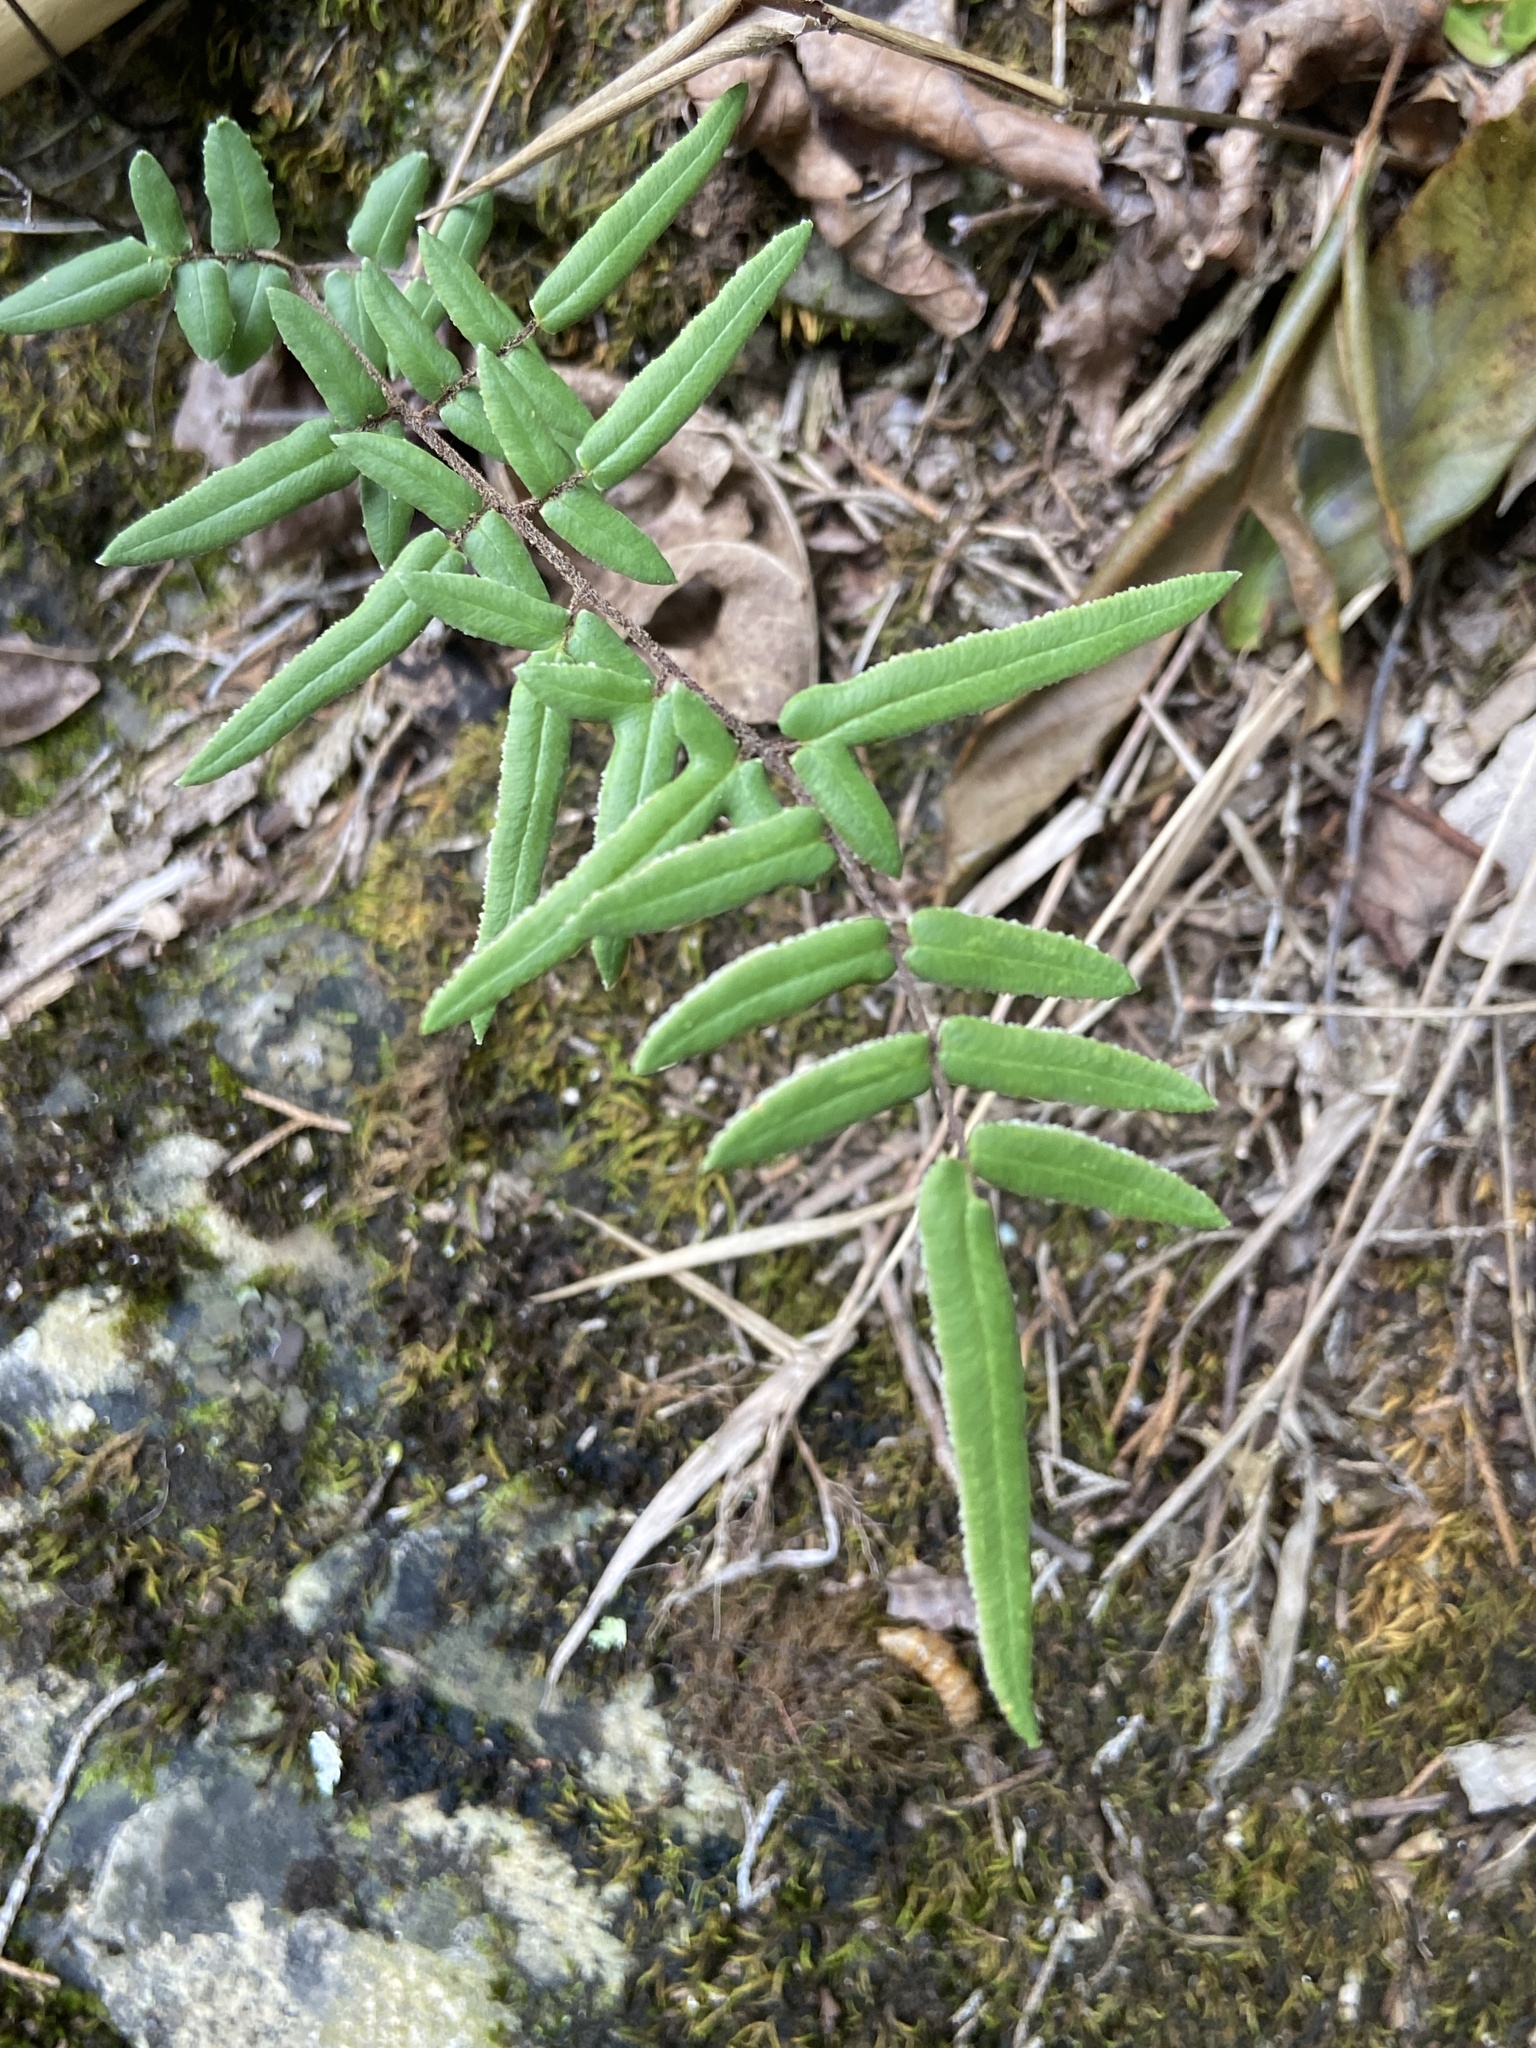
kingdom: Plantae
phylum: Tracheophyta
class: Polypodiopsida
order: Polypodiales
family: Pteridaceae
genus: Pellaea
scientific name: Pellaea atropurpurea
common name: Hairy cliffbrake
